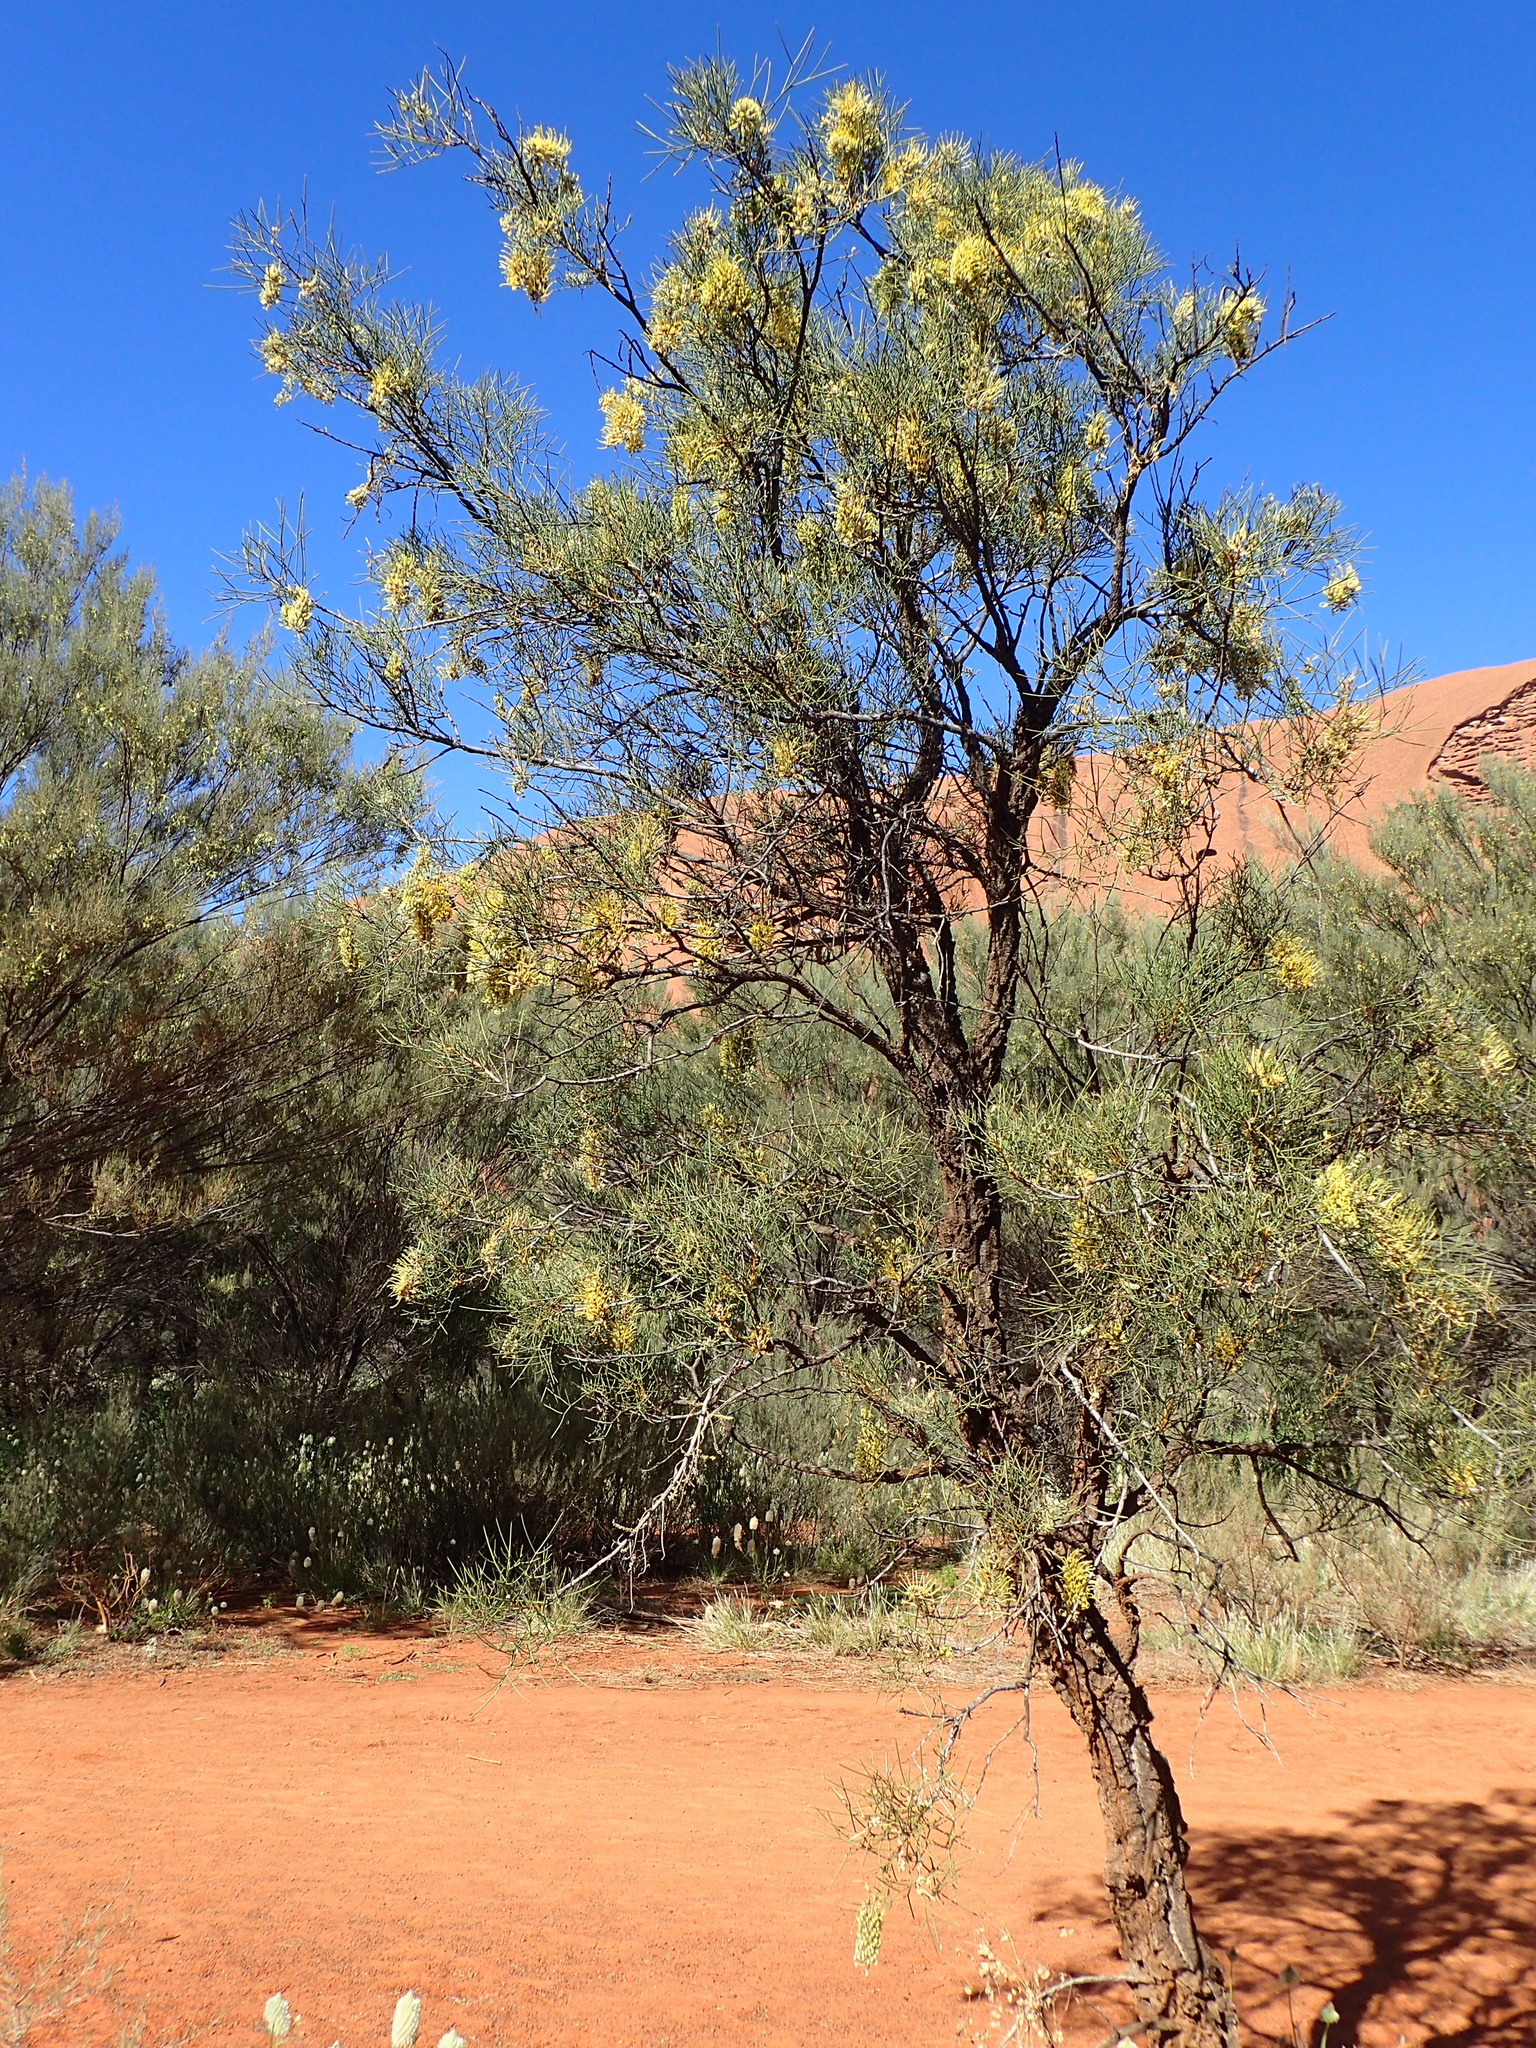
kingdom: Plantae
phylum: Tracheophyta
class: Magnoliopsida
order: Proteales
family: Proteaceae
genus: Hakea
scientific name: Hakea divaricata
